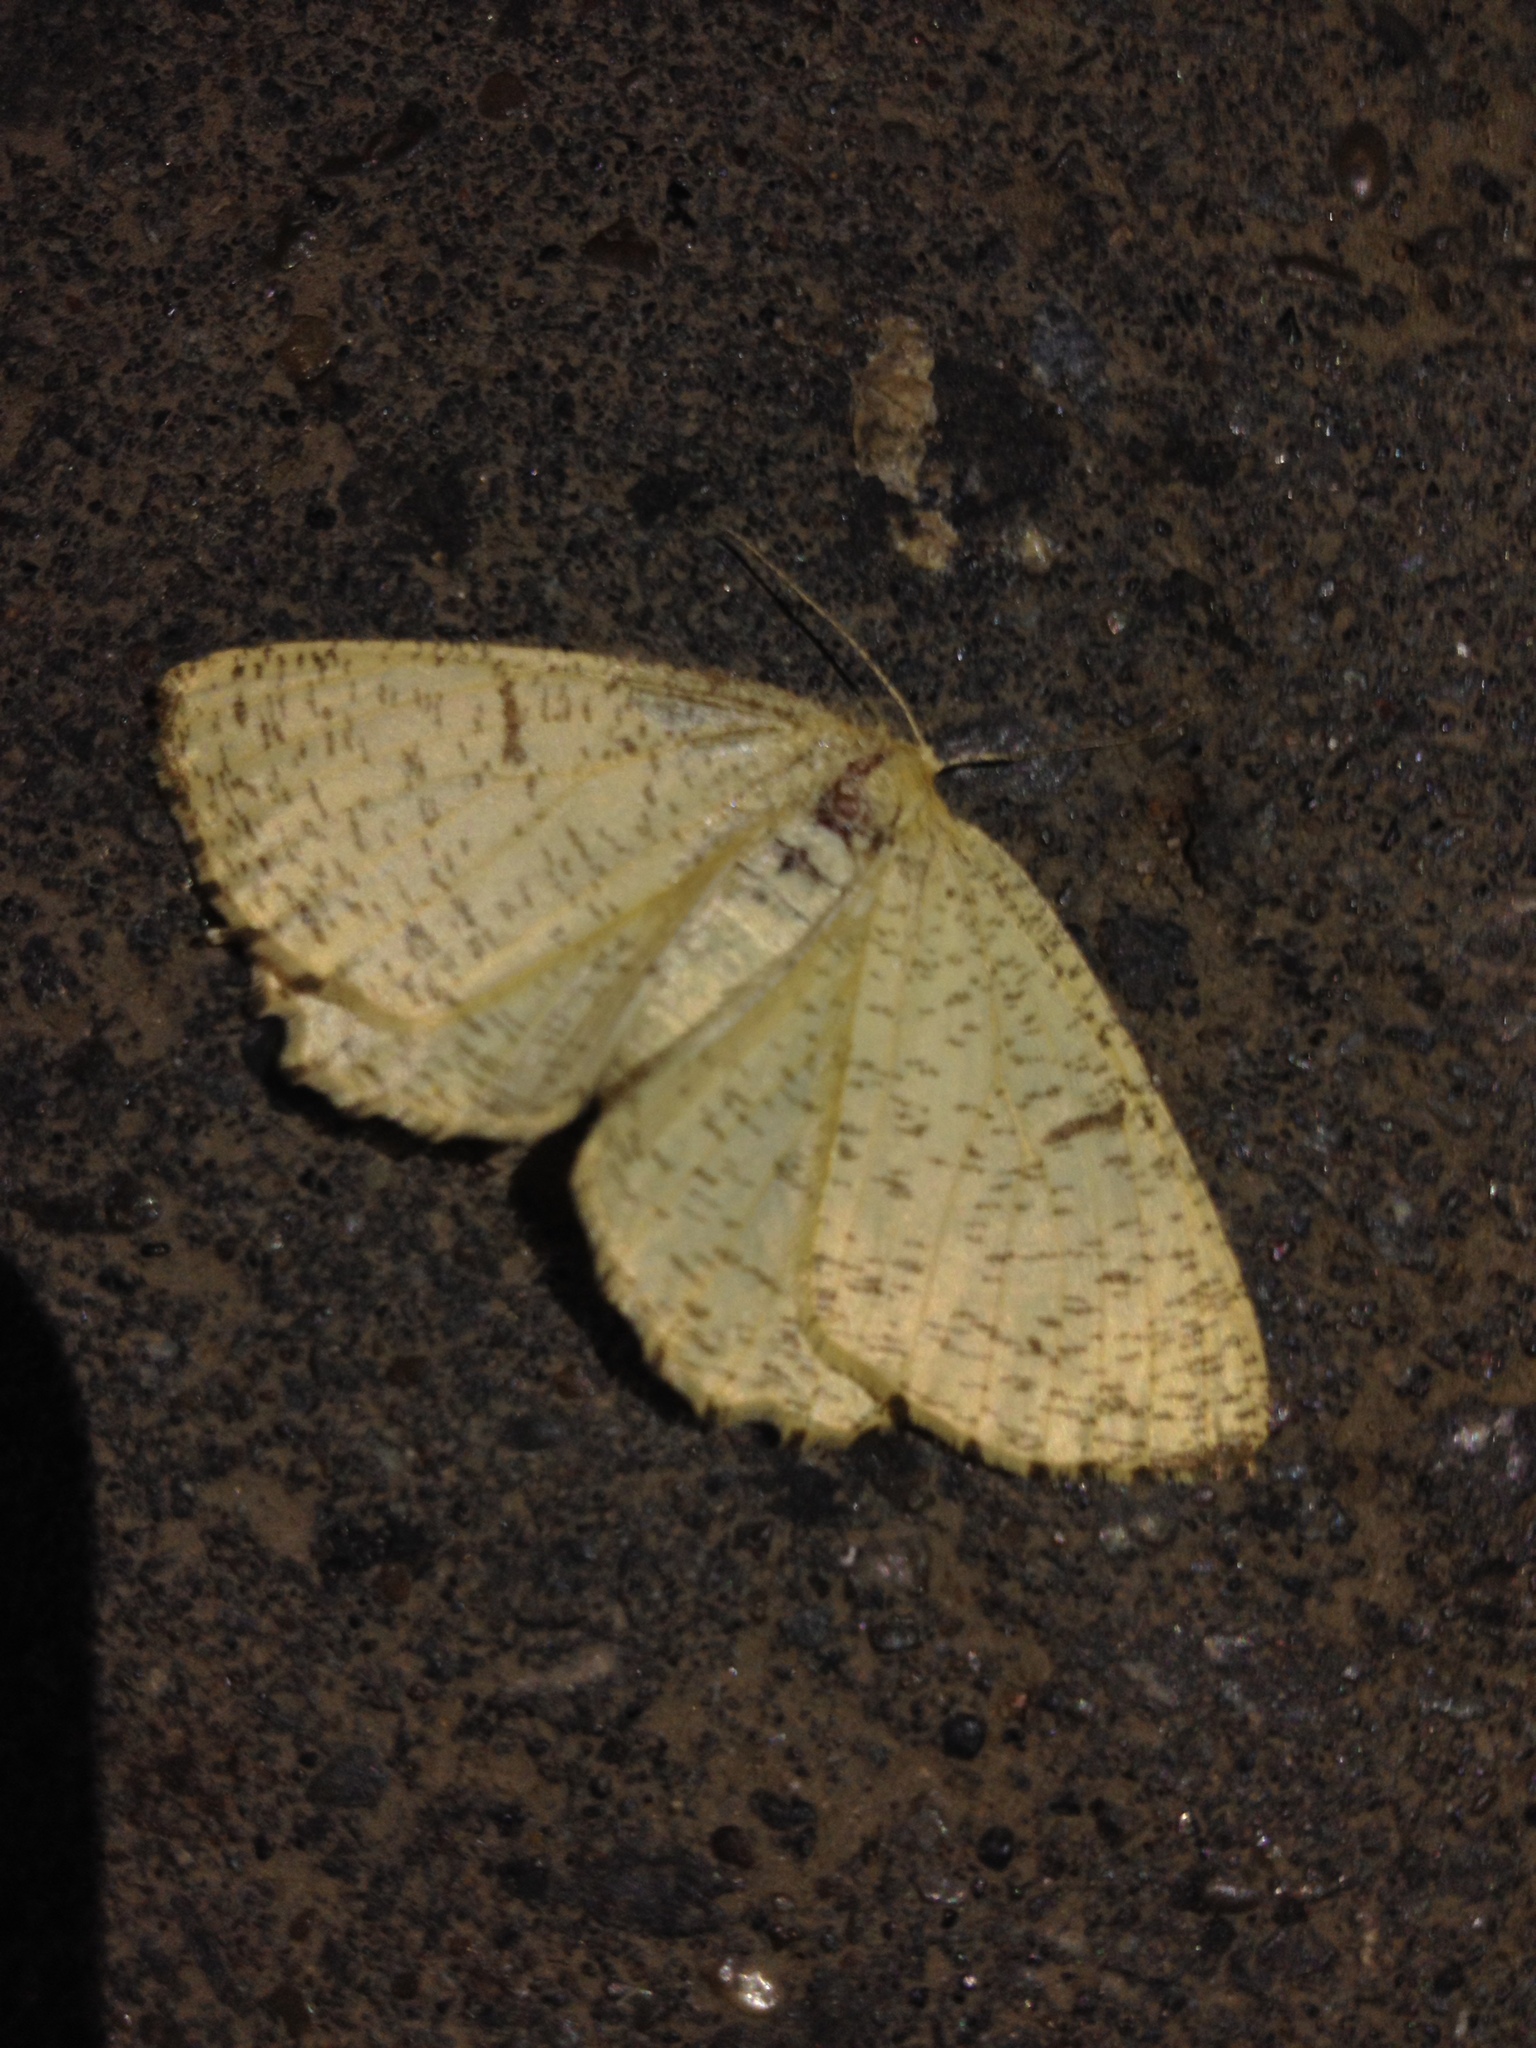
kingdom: Animalia
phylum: Arthropoda
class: Insecta
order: Lepidoptera
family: Geometridae
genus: Angerona
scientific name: Angerona prunaria
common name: Orange moth
